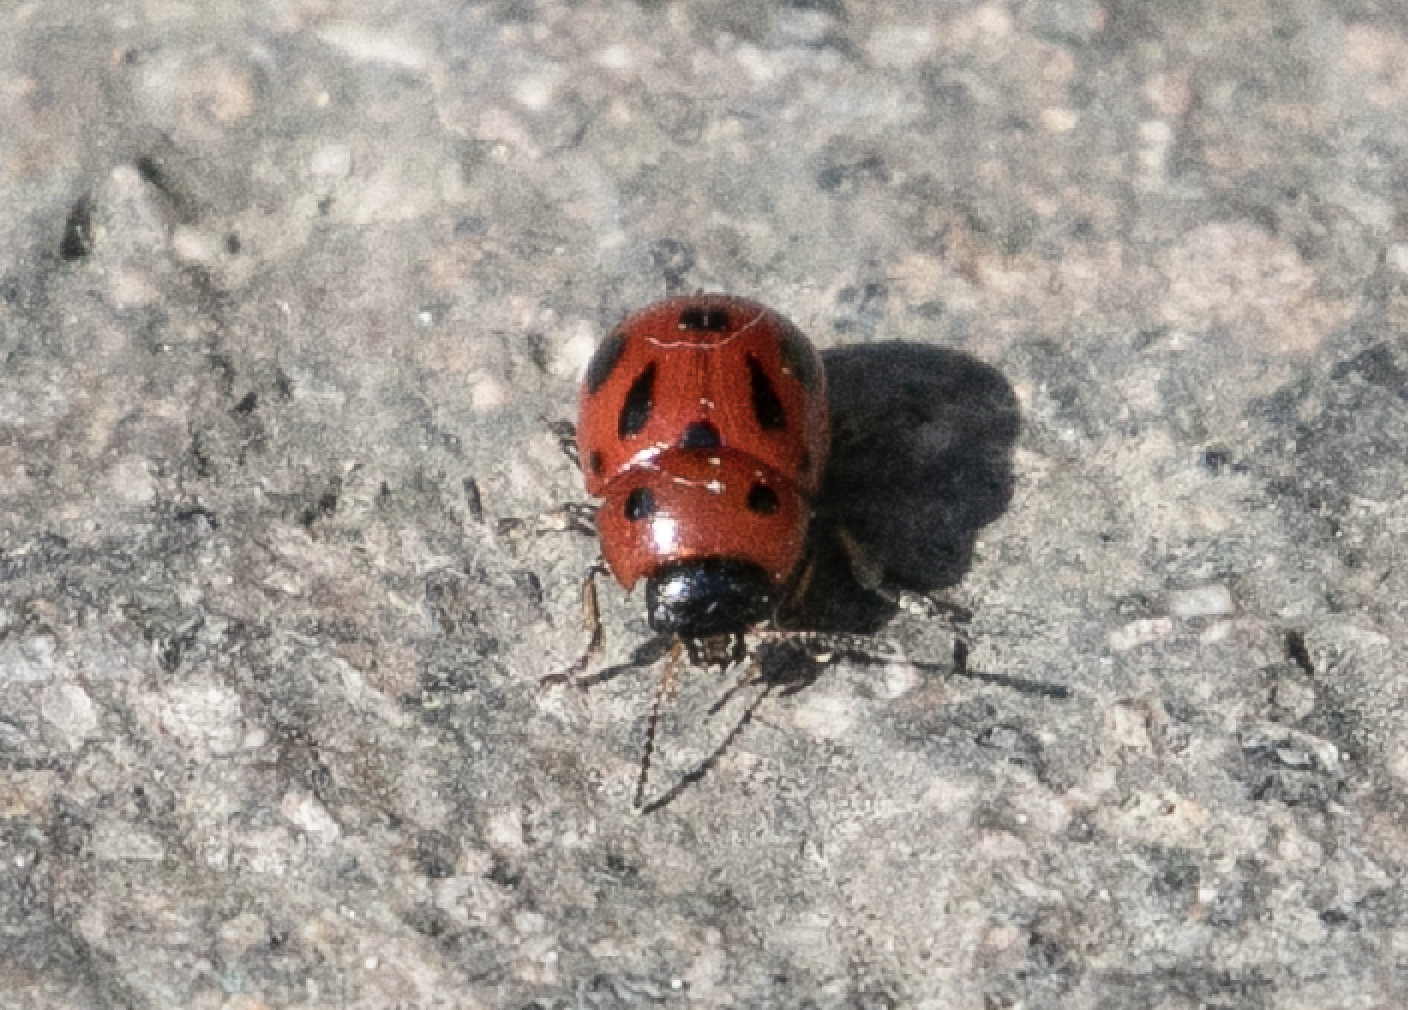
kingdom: Animalia
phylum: Arthropoda
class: Insecta
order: Coleoptera
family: Chrysomelidae
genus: Gonioctena
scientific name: Gonioctena fornicata
